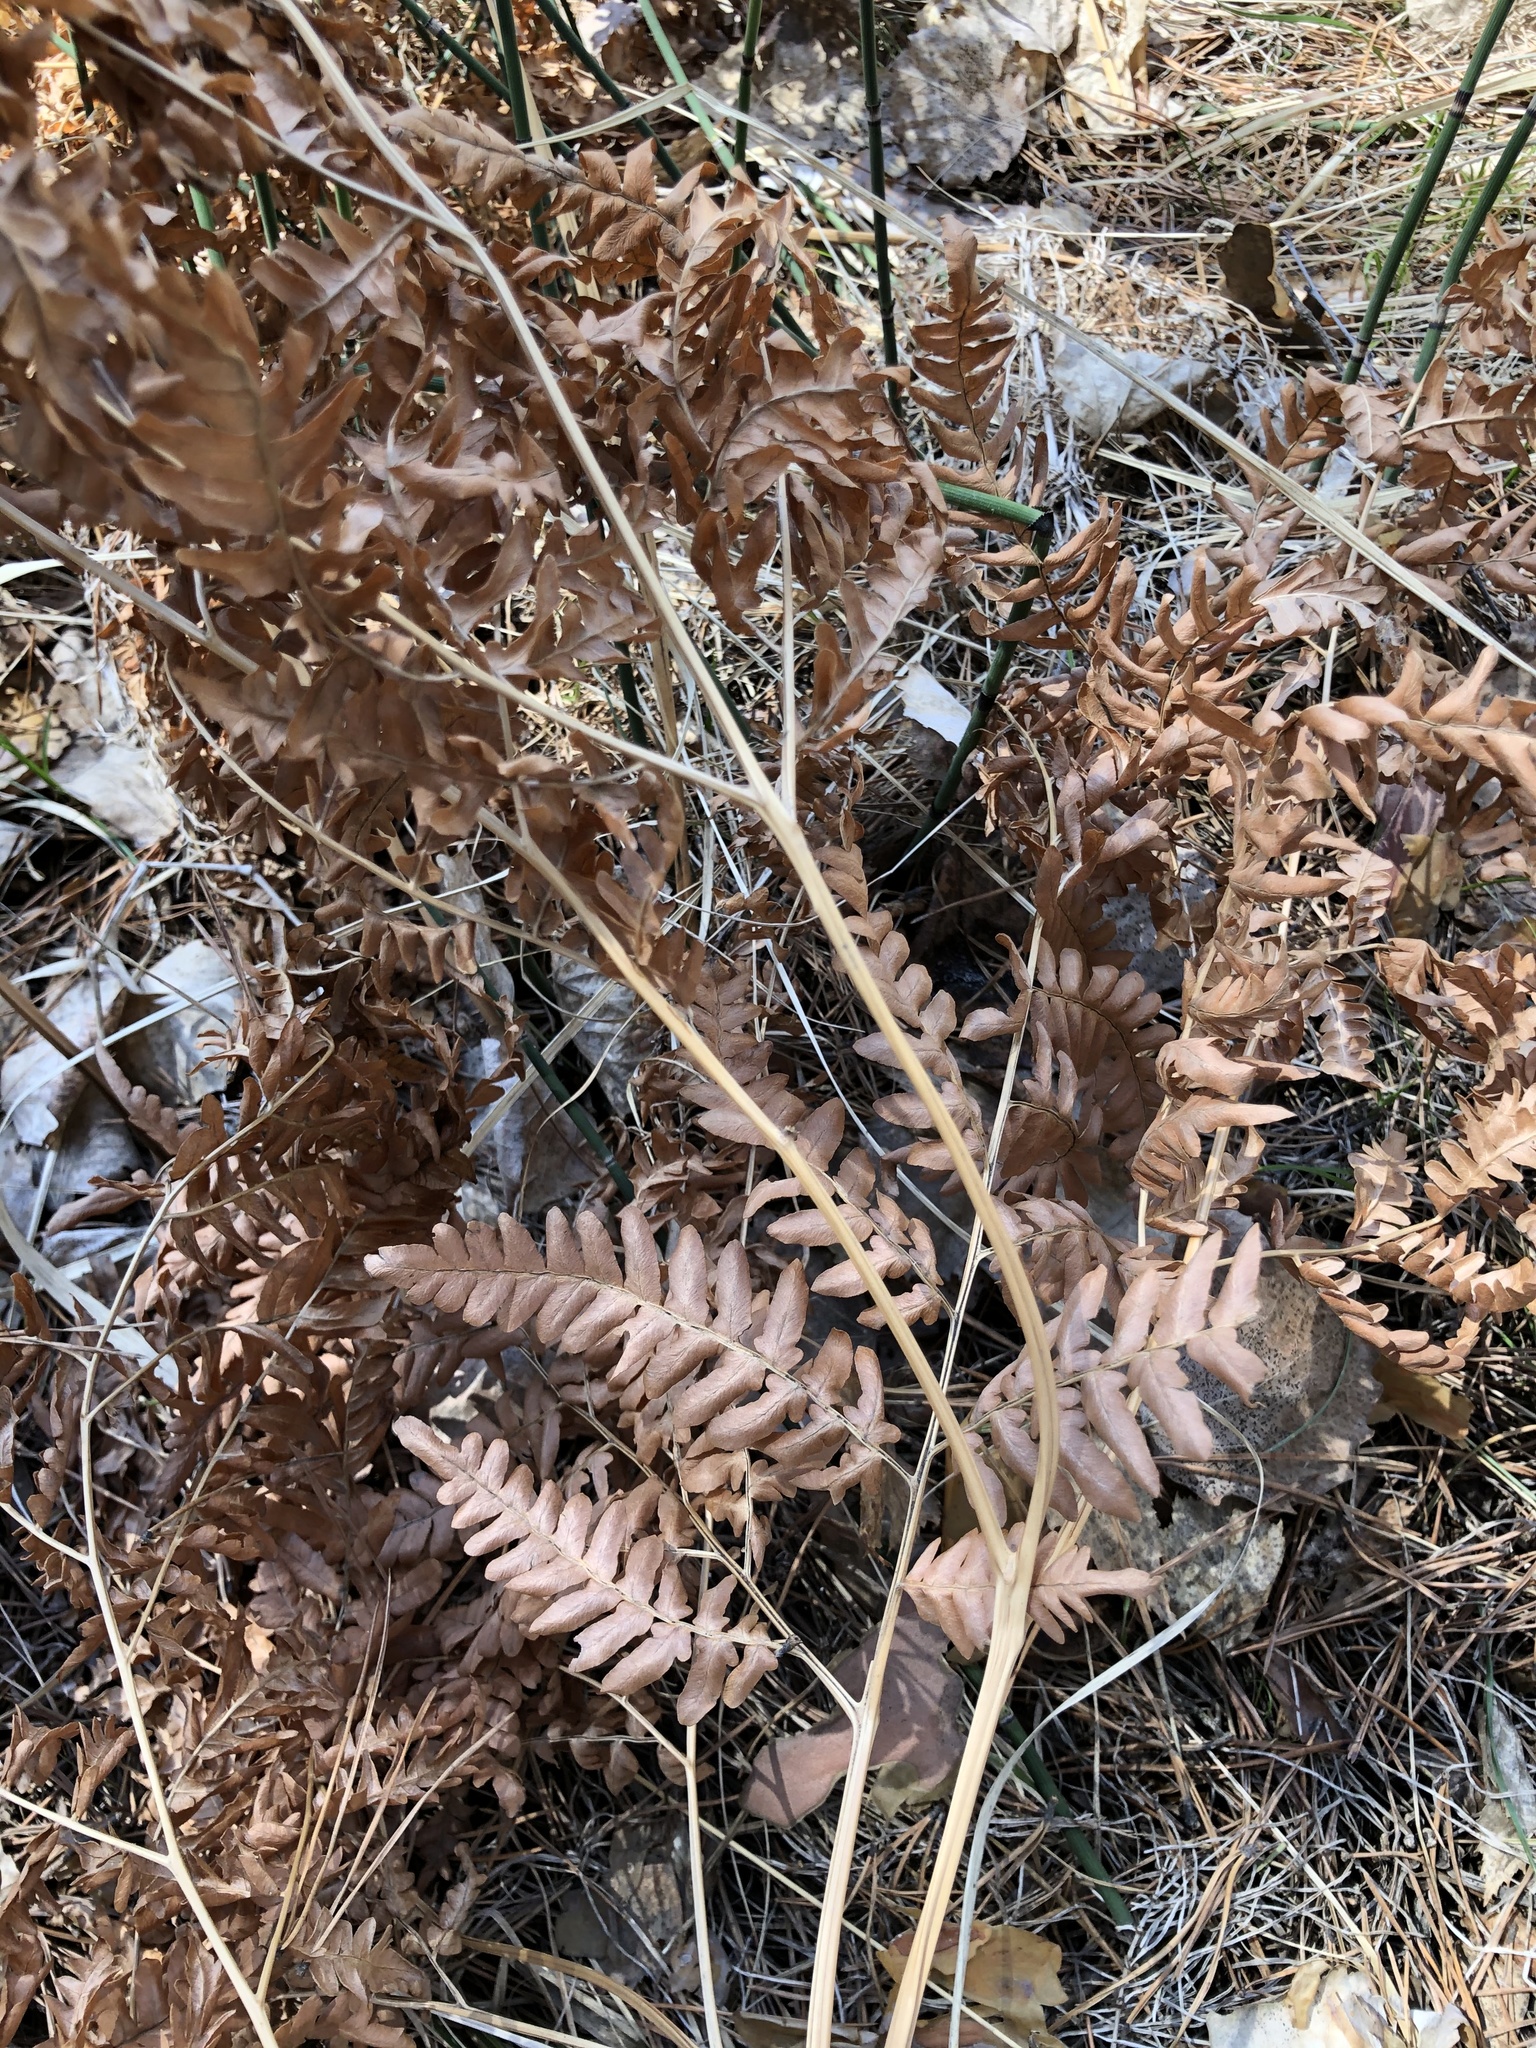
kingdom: Plantae
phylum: Tracheophyta
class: Polypodiopsida
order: Polypodiales
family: Dennstaedtiaceae
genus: Pteridium
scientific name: Pteridium aquilinum
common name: Bracken
